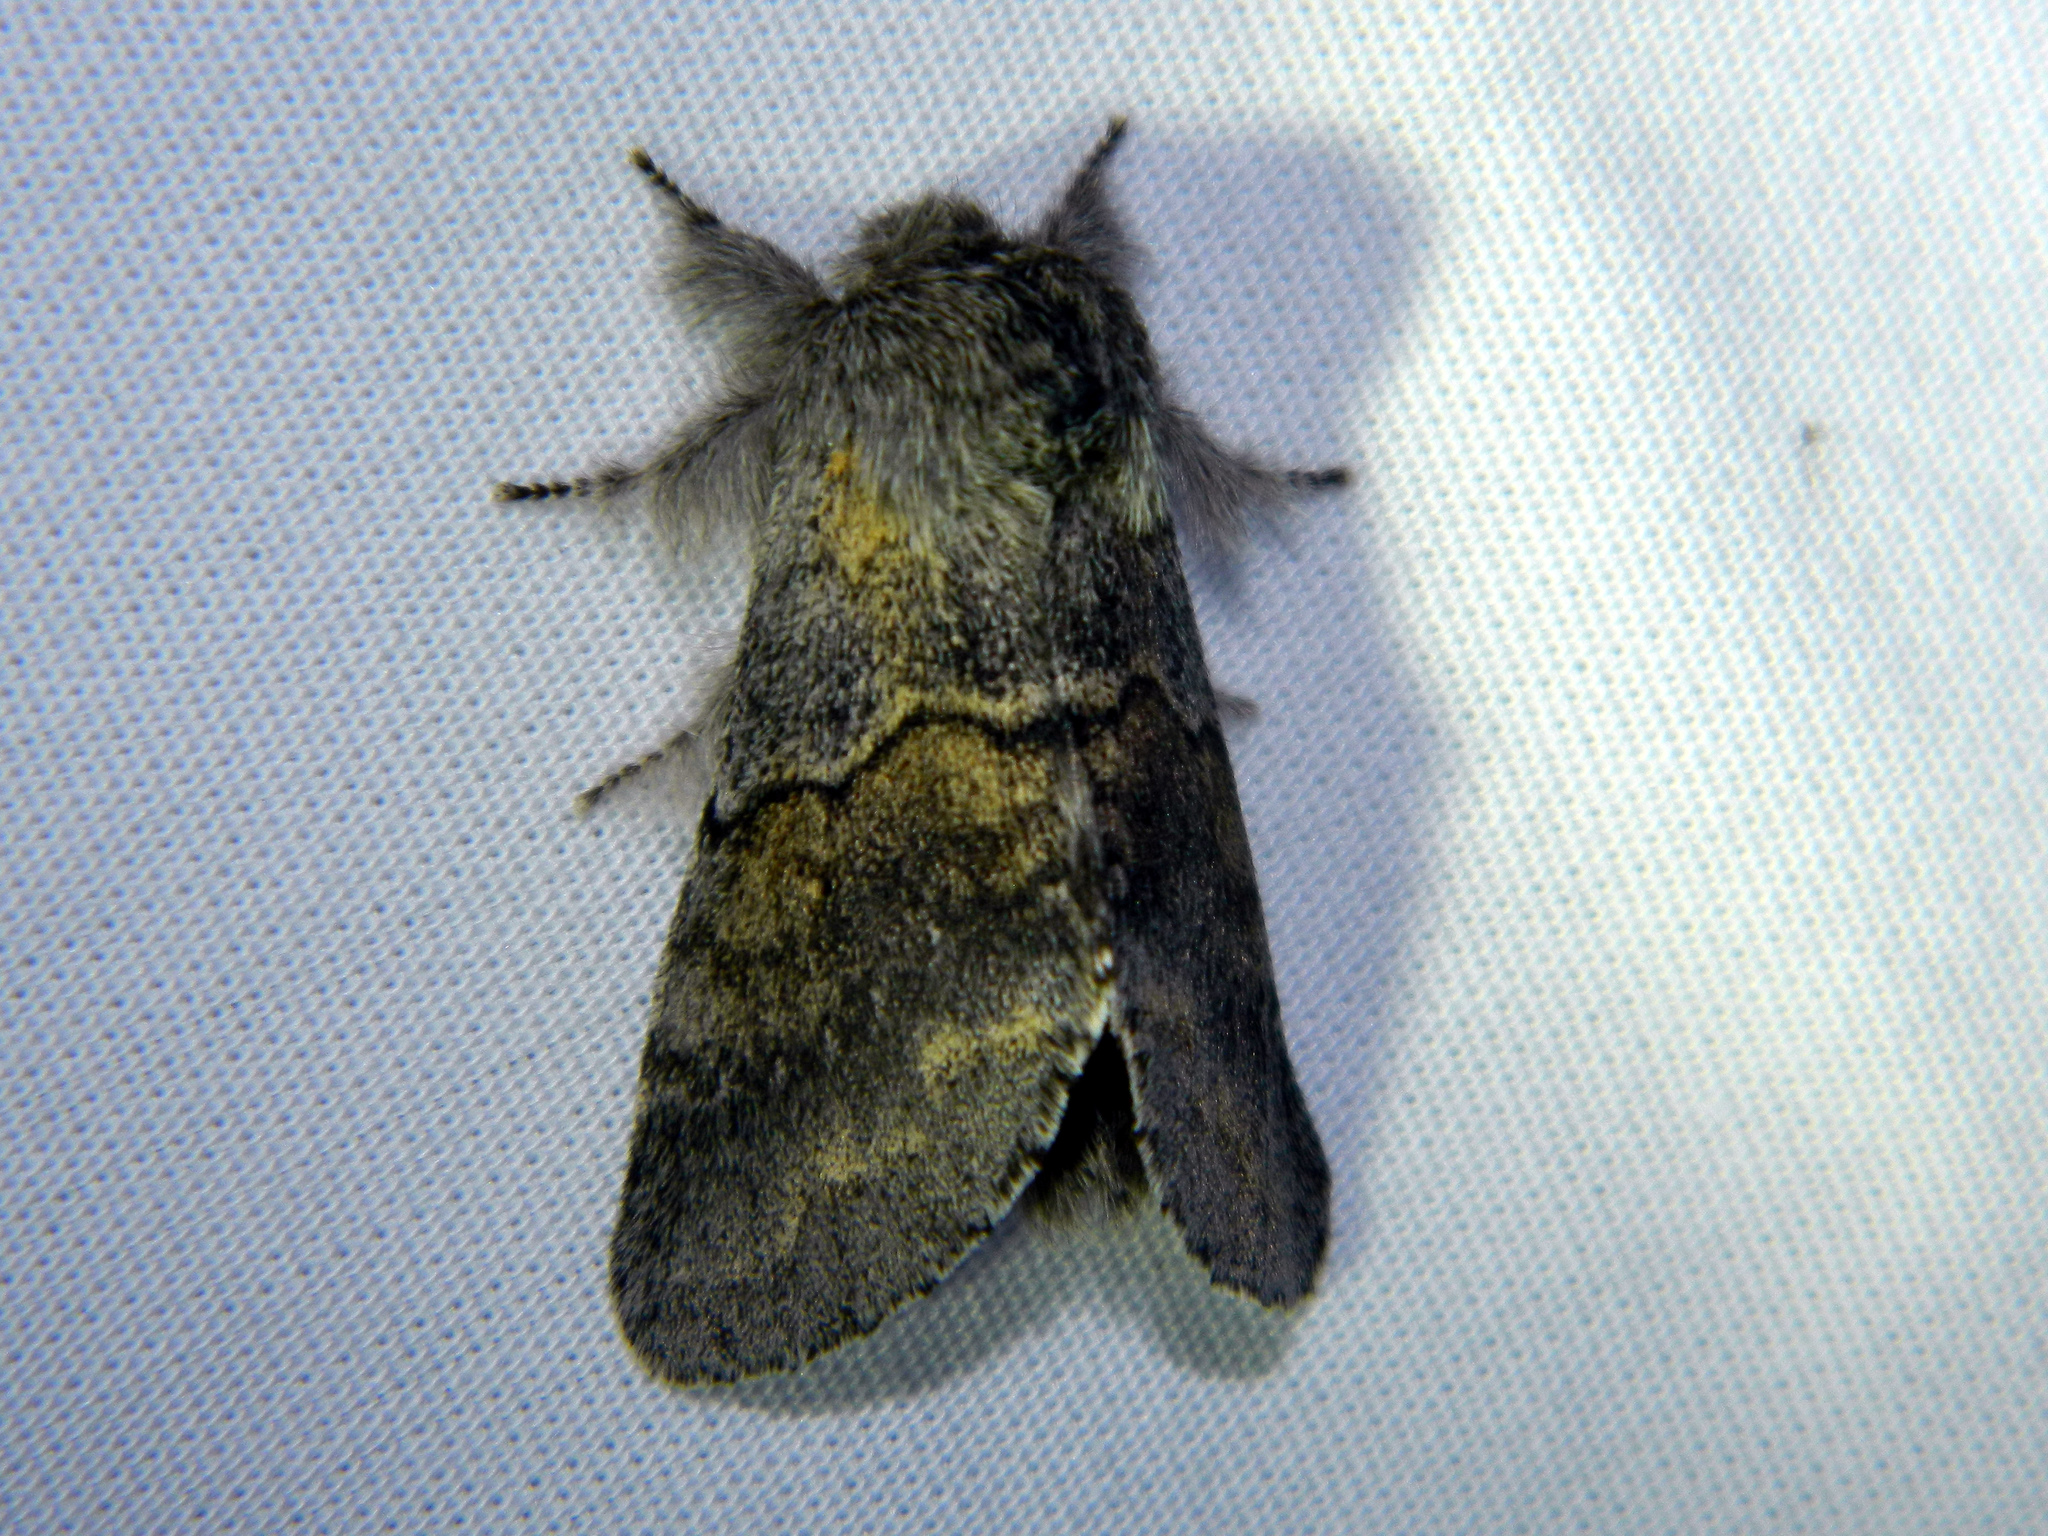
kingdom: Animalia
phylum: Arthropoda
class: Insecta
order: Lepidoptera
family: Notodontidae
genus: Gluphisia
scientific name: Gluphisia lintneri
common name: Lintner's gluphisia moth
